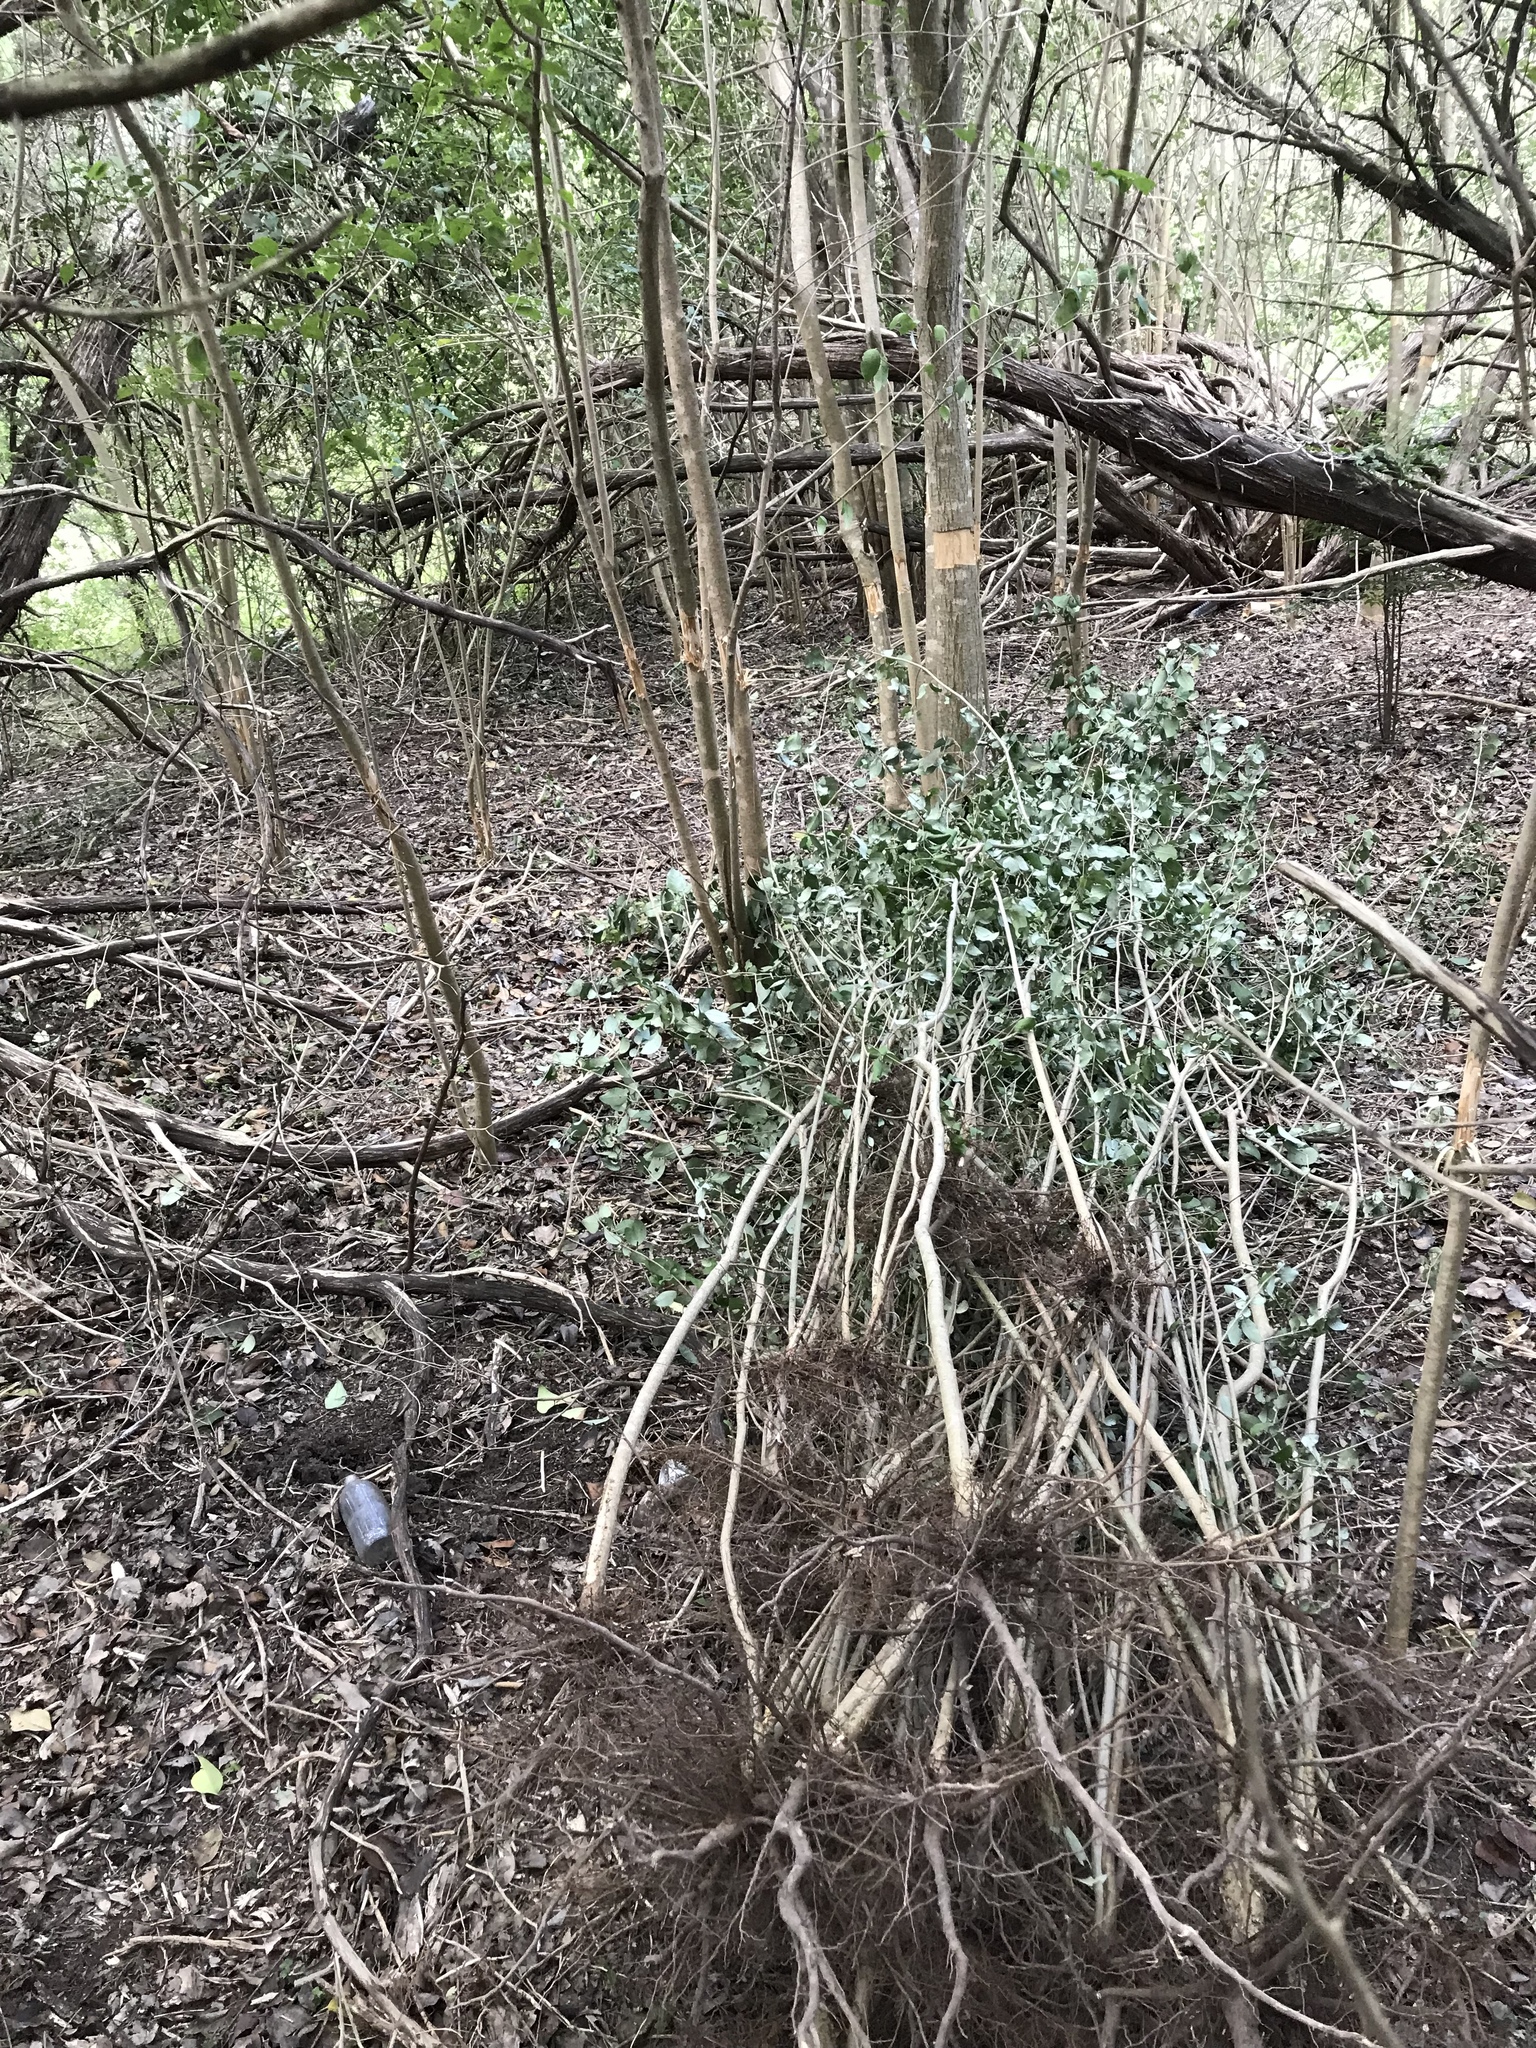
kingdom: Plantae
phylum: Tracheophyta
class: Magnoliopsida
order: Lamiales
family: Oleaceae
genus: Ligustrum
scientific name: Ligustrum lucidum
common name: Glossy privet
